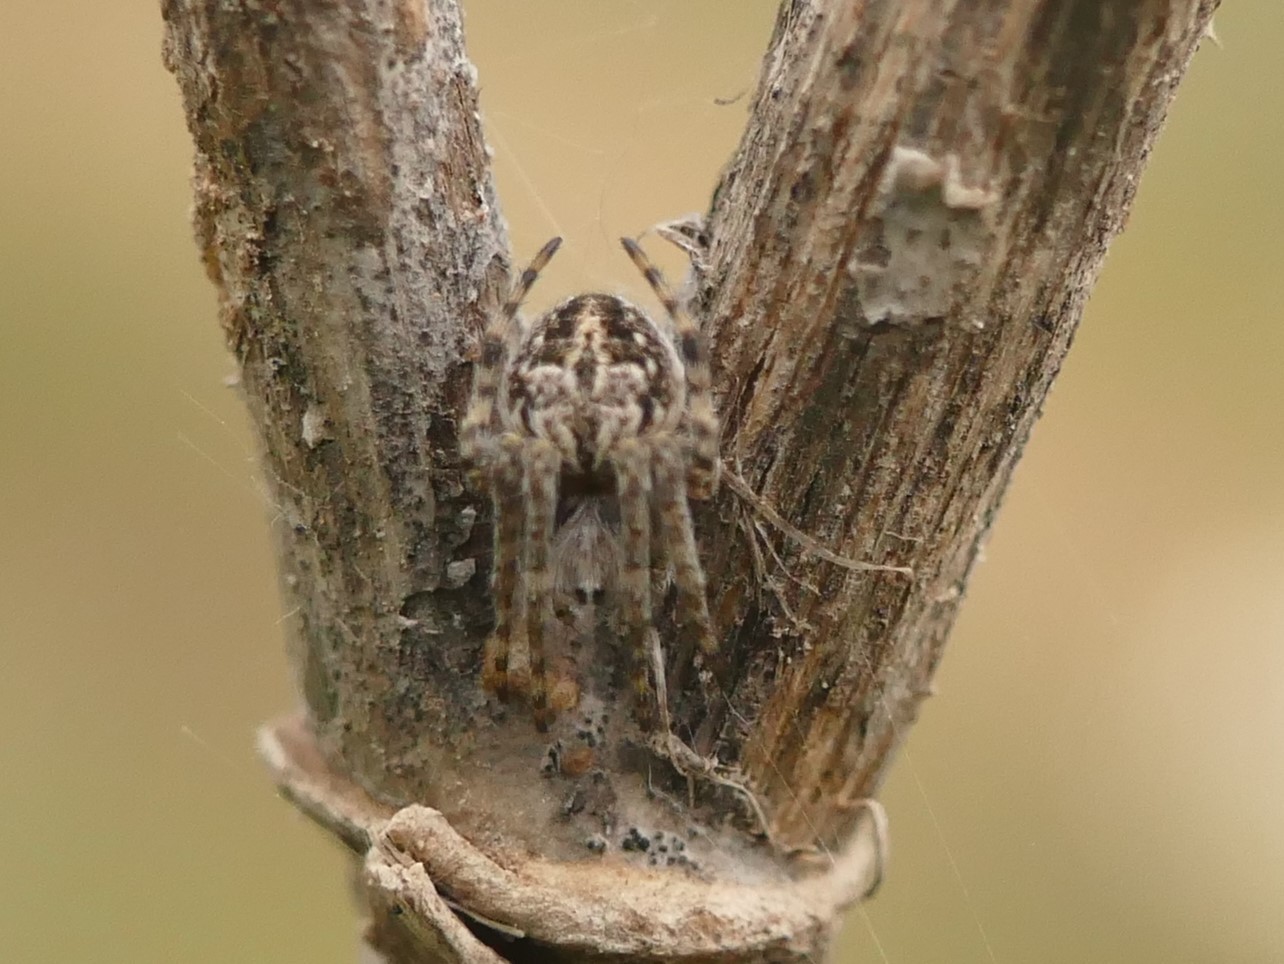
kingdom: Animalia
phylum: Arthropoda
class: Arachnida
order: Araneae
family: Araneidae
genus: Agalenatea
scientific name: Agalenatea redii
